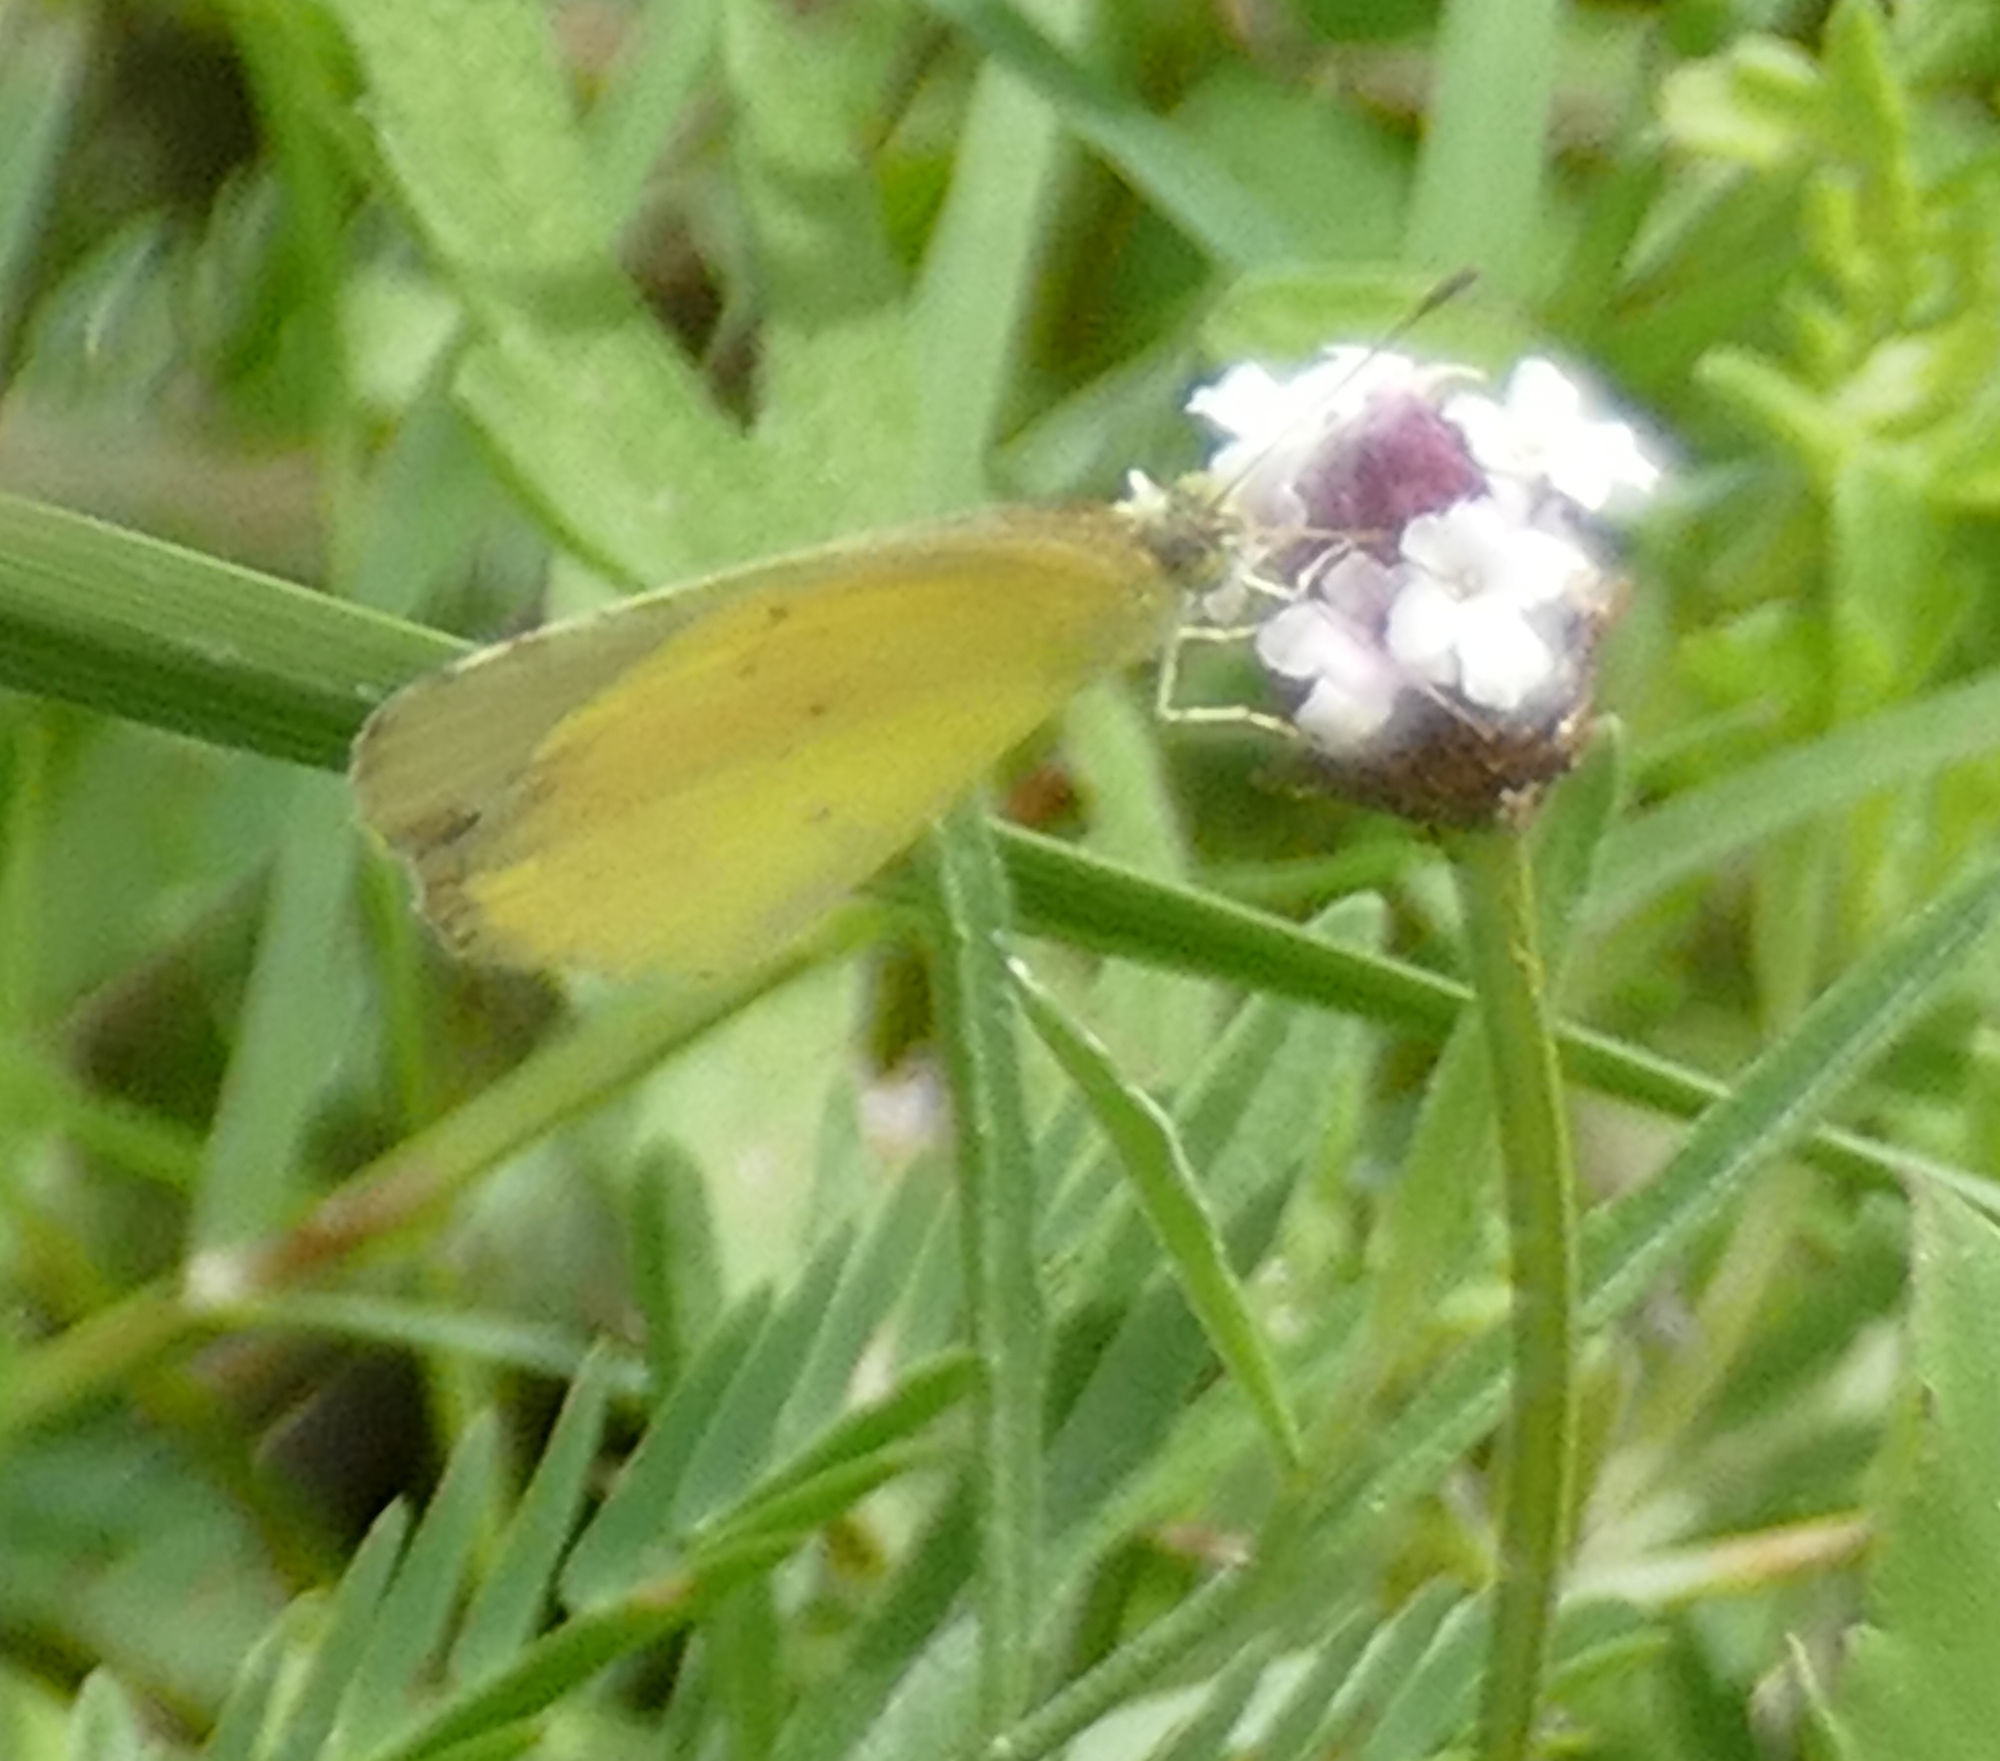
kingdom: Animalia
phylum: Arthropoda
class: Insecta
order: Lepidoptera
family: Pieridae
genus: Pyrisitia
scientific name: Pyrisitia nise
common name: Mimosa yellow
